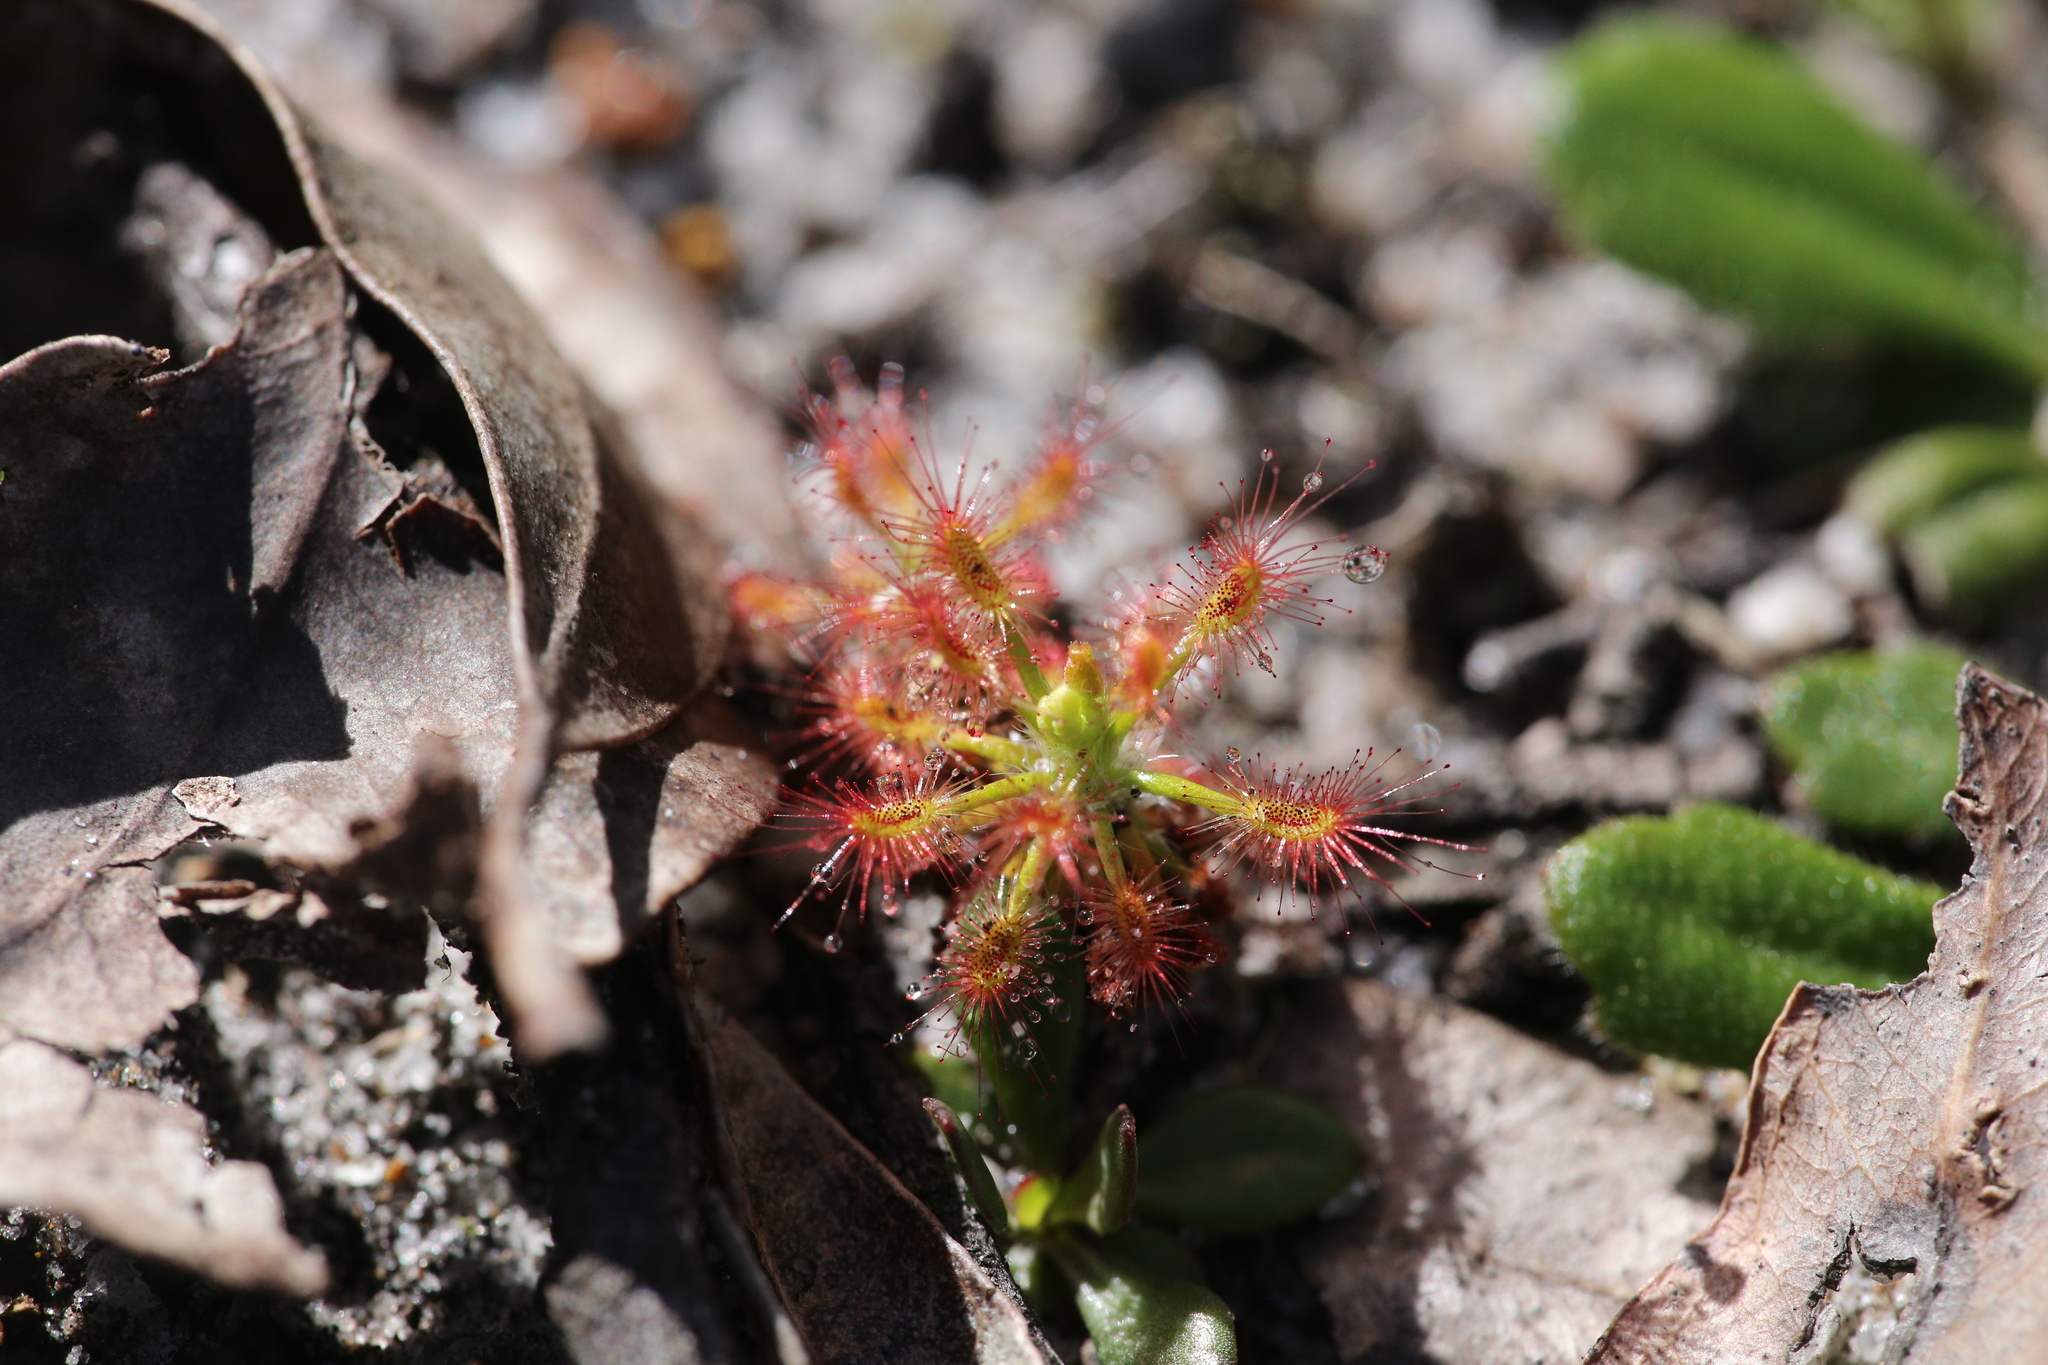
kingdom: Plantae
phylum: Tracheophyta
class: Magnoliopsida
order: Caryophyllales
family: Droseraceae
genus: Drosera
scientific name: Drosera paleacea
